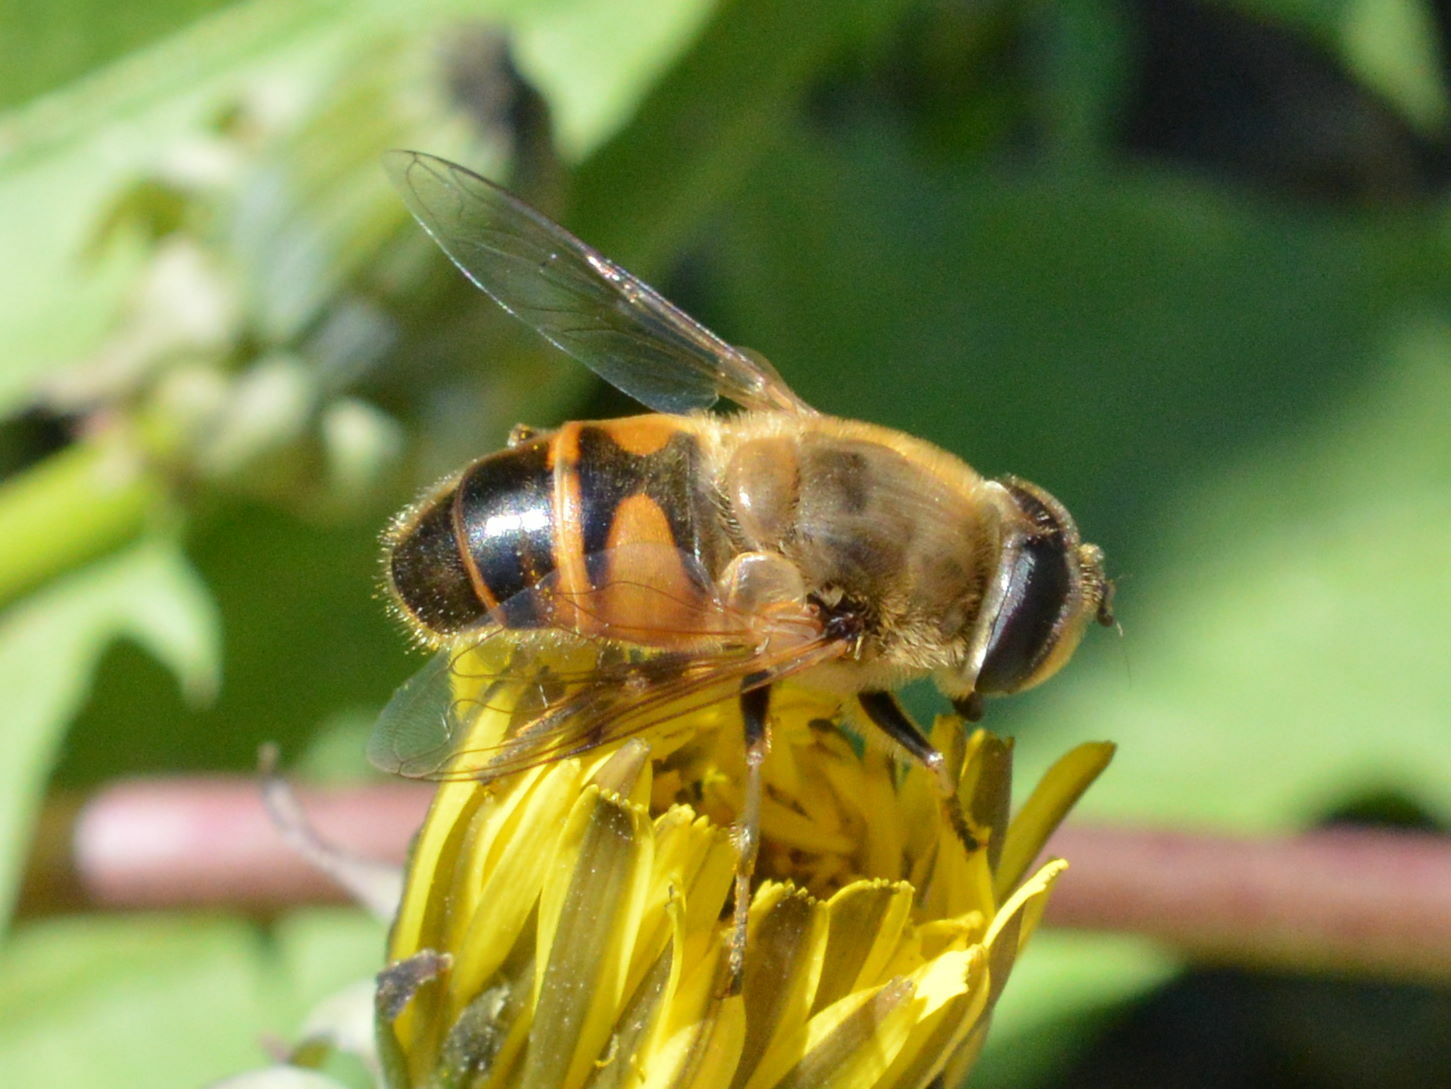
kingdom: Animalia
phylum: Arthropoda
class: Insecta
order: Diptera
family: Syrphidae
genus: Eristalis
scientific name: Eristalis tenax
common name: Drone fly
